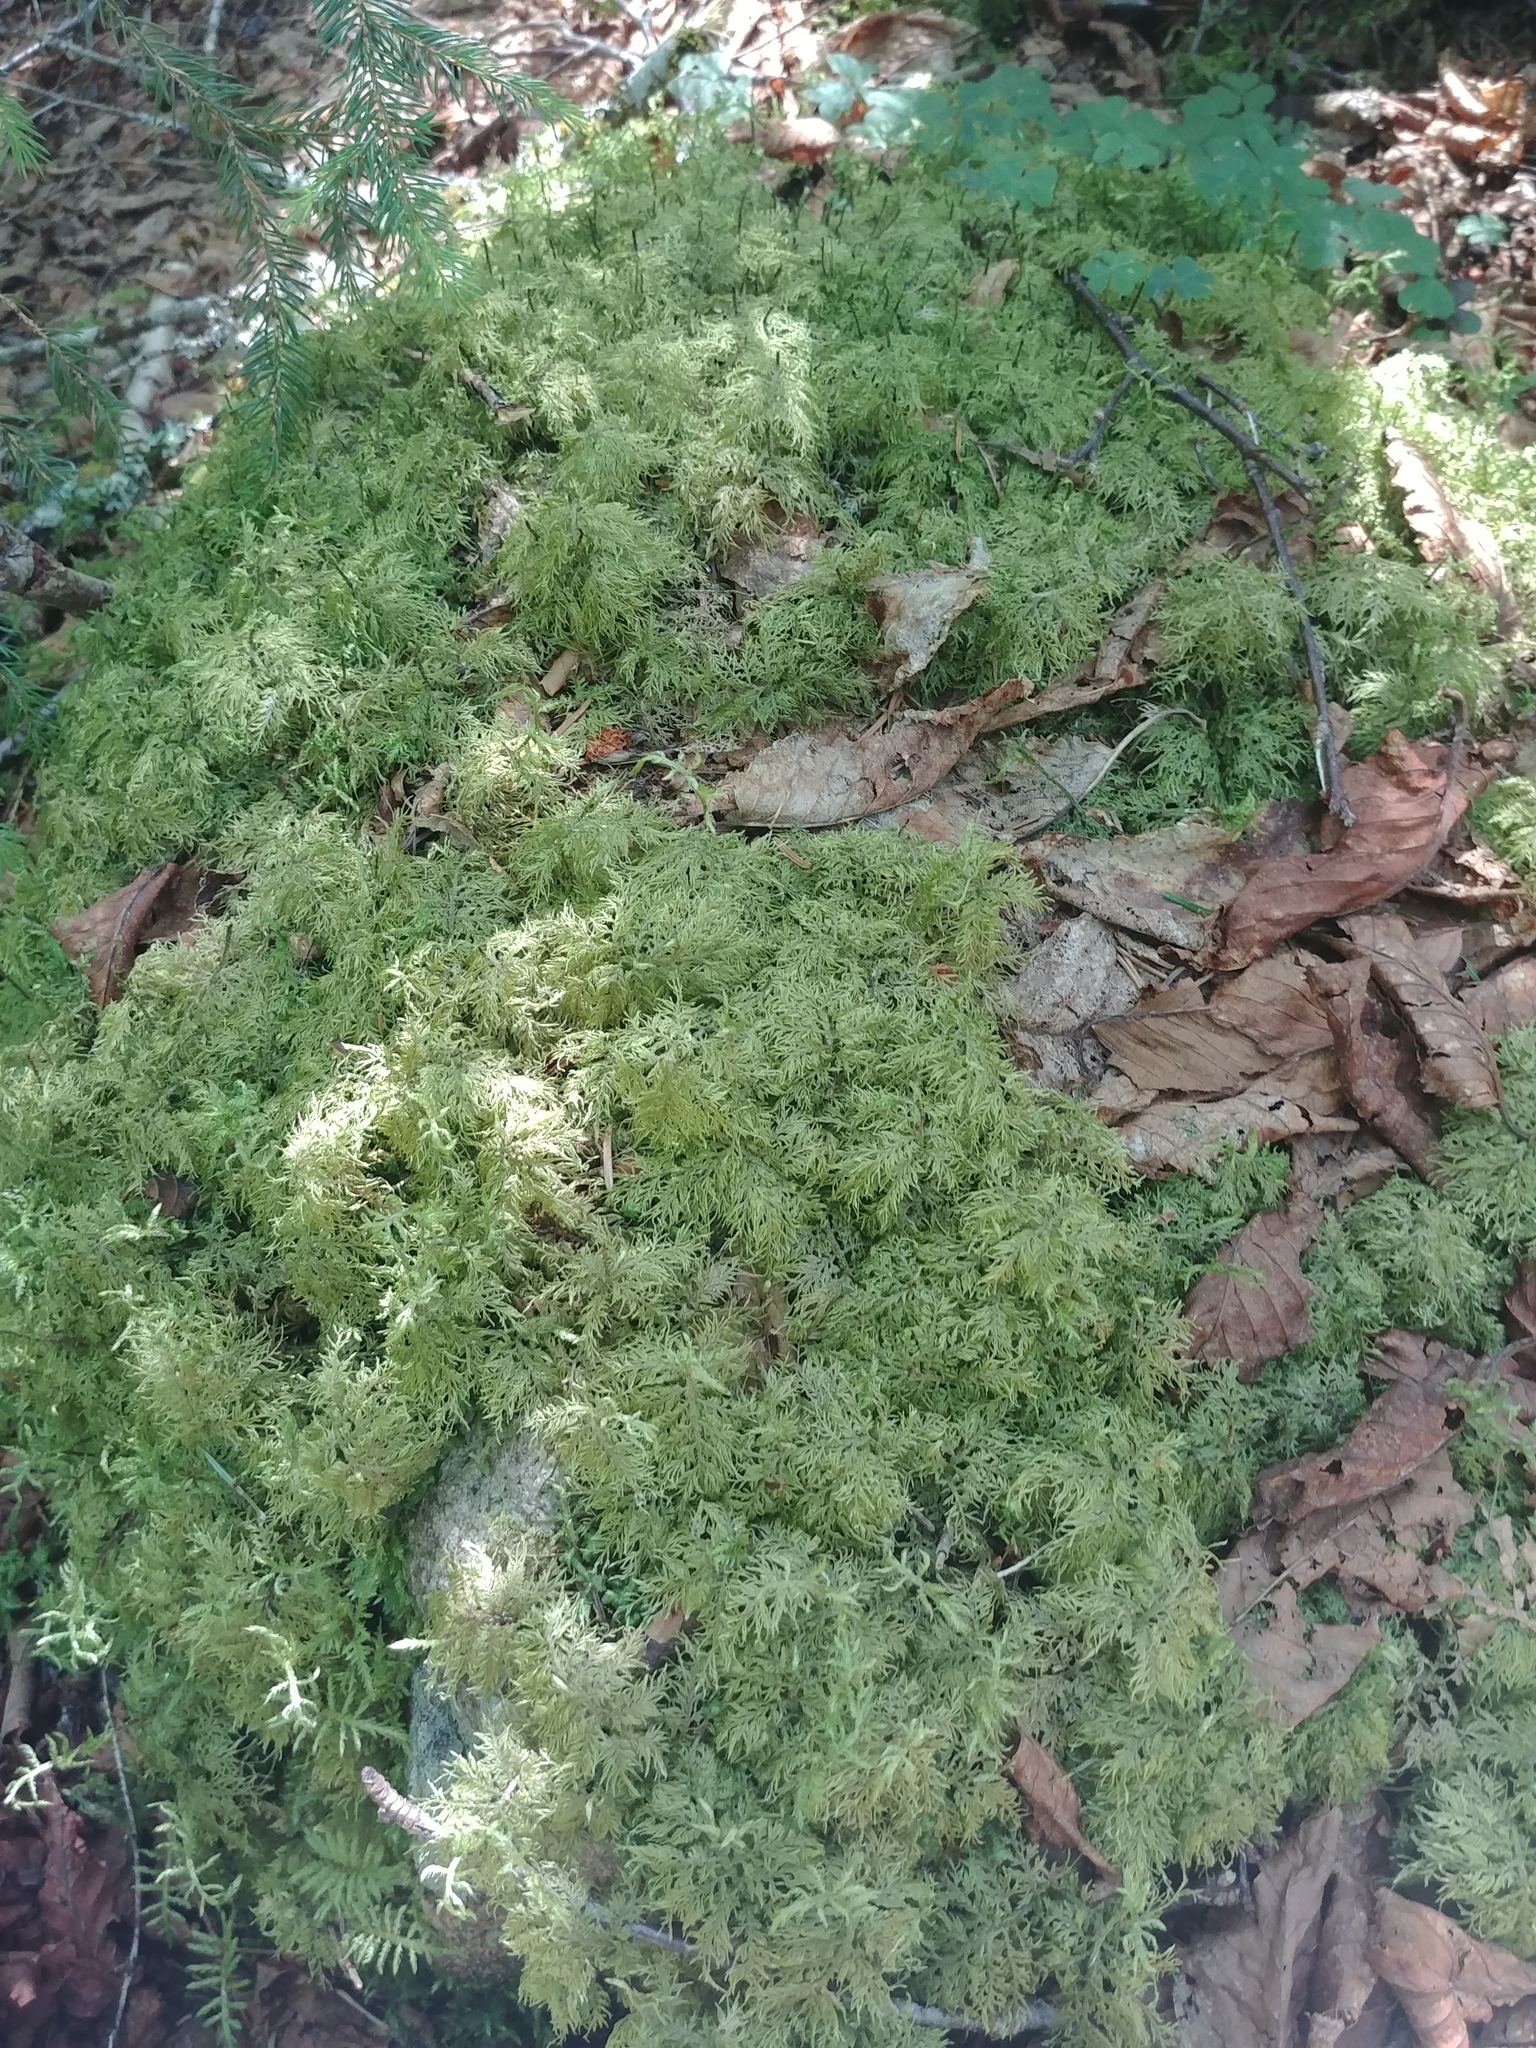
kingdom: Plantae
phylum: Bryophyta
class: Bryopsida
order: Hypnales
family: Hylocomiaceae
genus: Hylocomium
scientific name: Hylocomium splendens
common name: Stairstep moss
